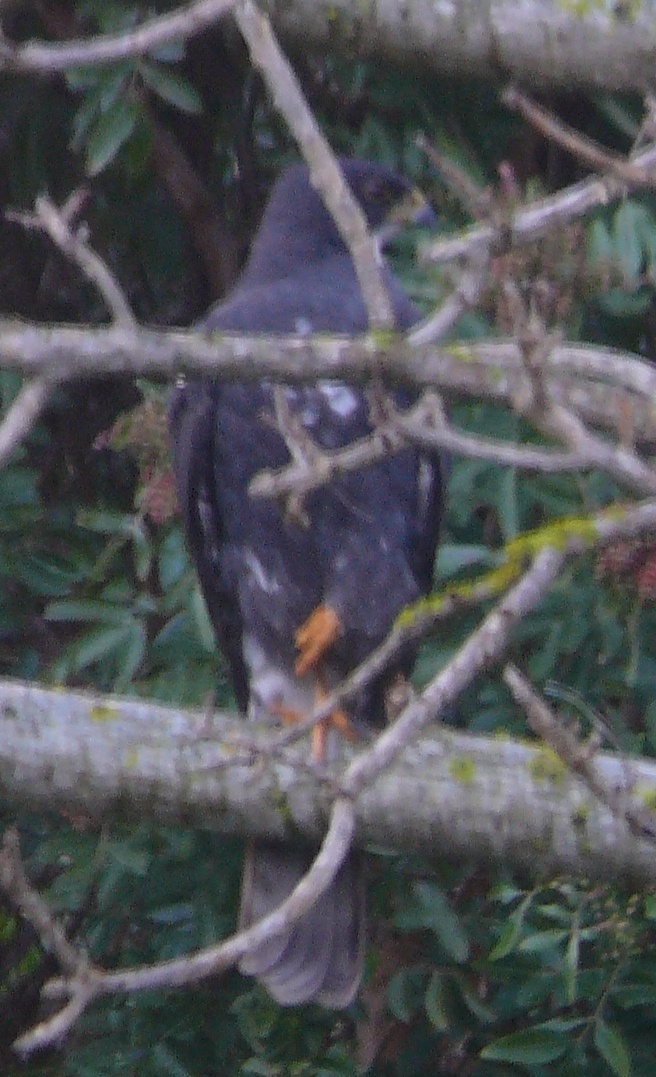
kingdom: Animalia
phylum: Chordata
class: Aves
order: Accipitriformes
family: Accipitridae
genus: Accipiter
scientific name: Accipiter melanoleucus
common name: Black sparrowhawk
